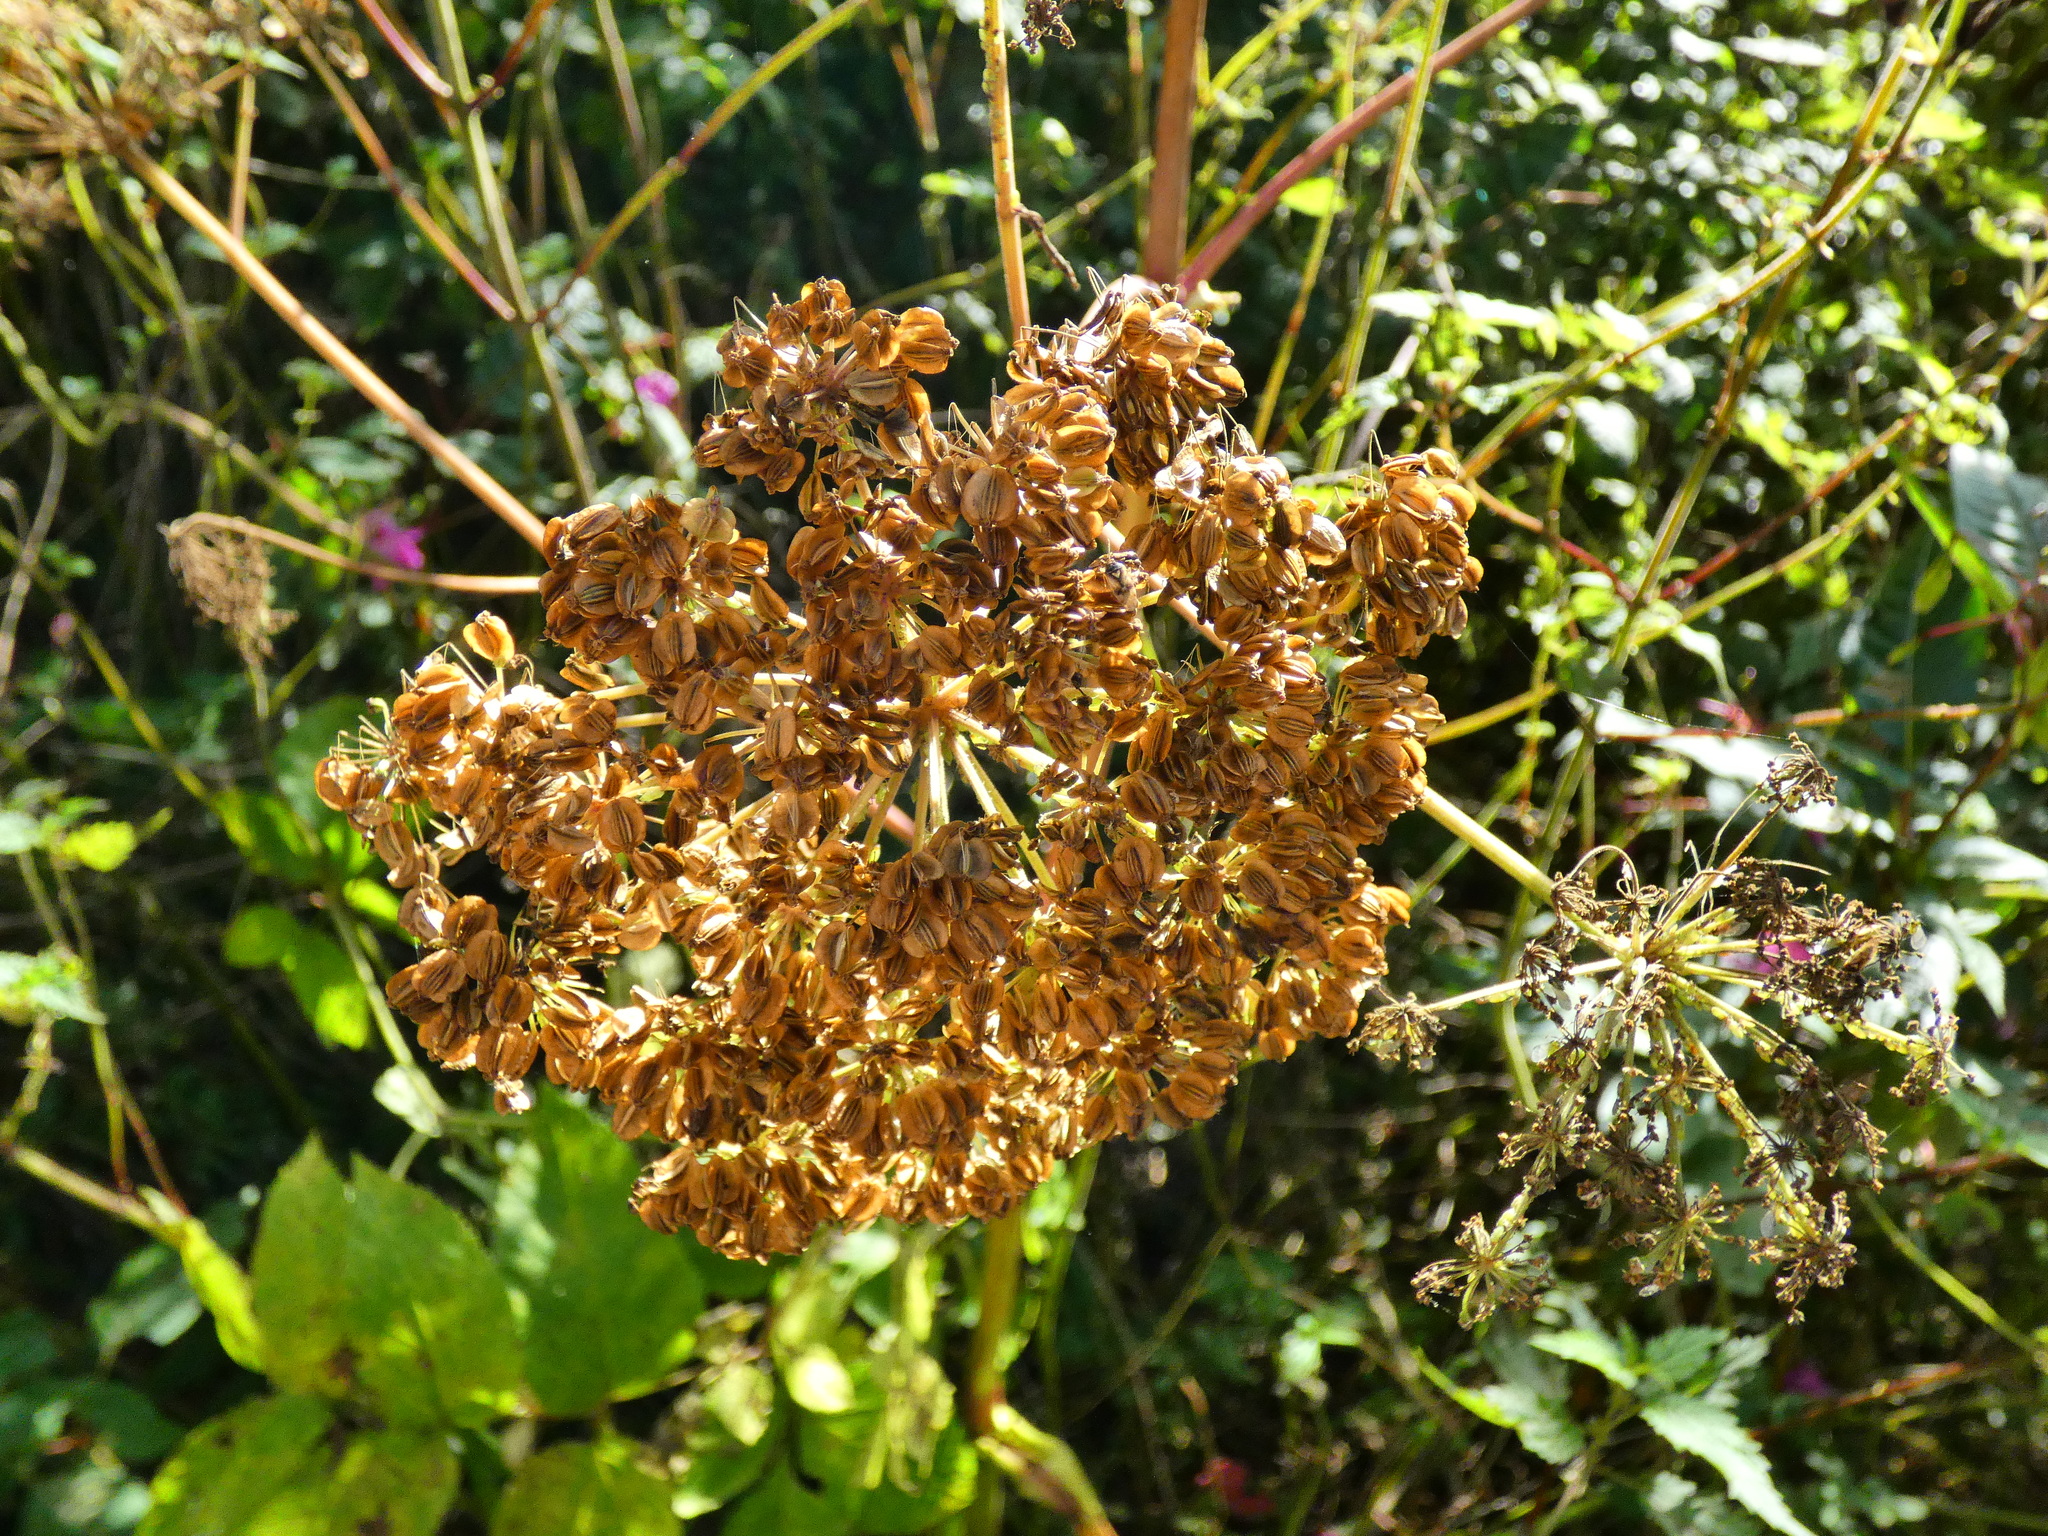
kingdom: Plantae
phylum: Tracheophyta
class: Magnoliopsida
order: Apiales
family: Apiaceae
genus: Angelica
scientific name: Angelica sylvestris
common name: Wild angelica
